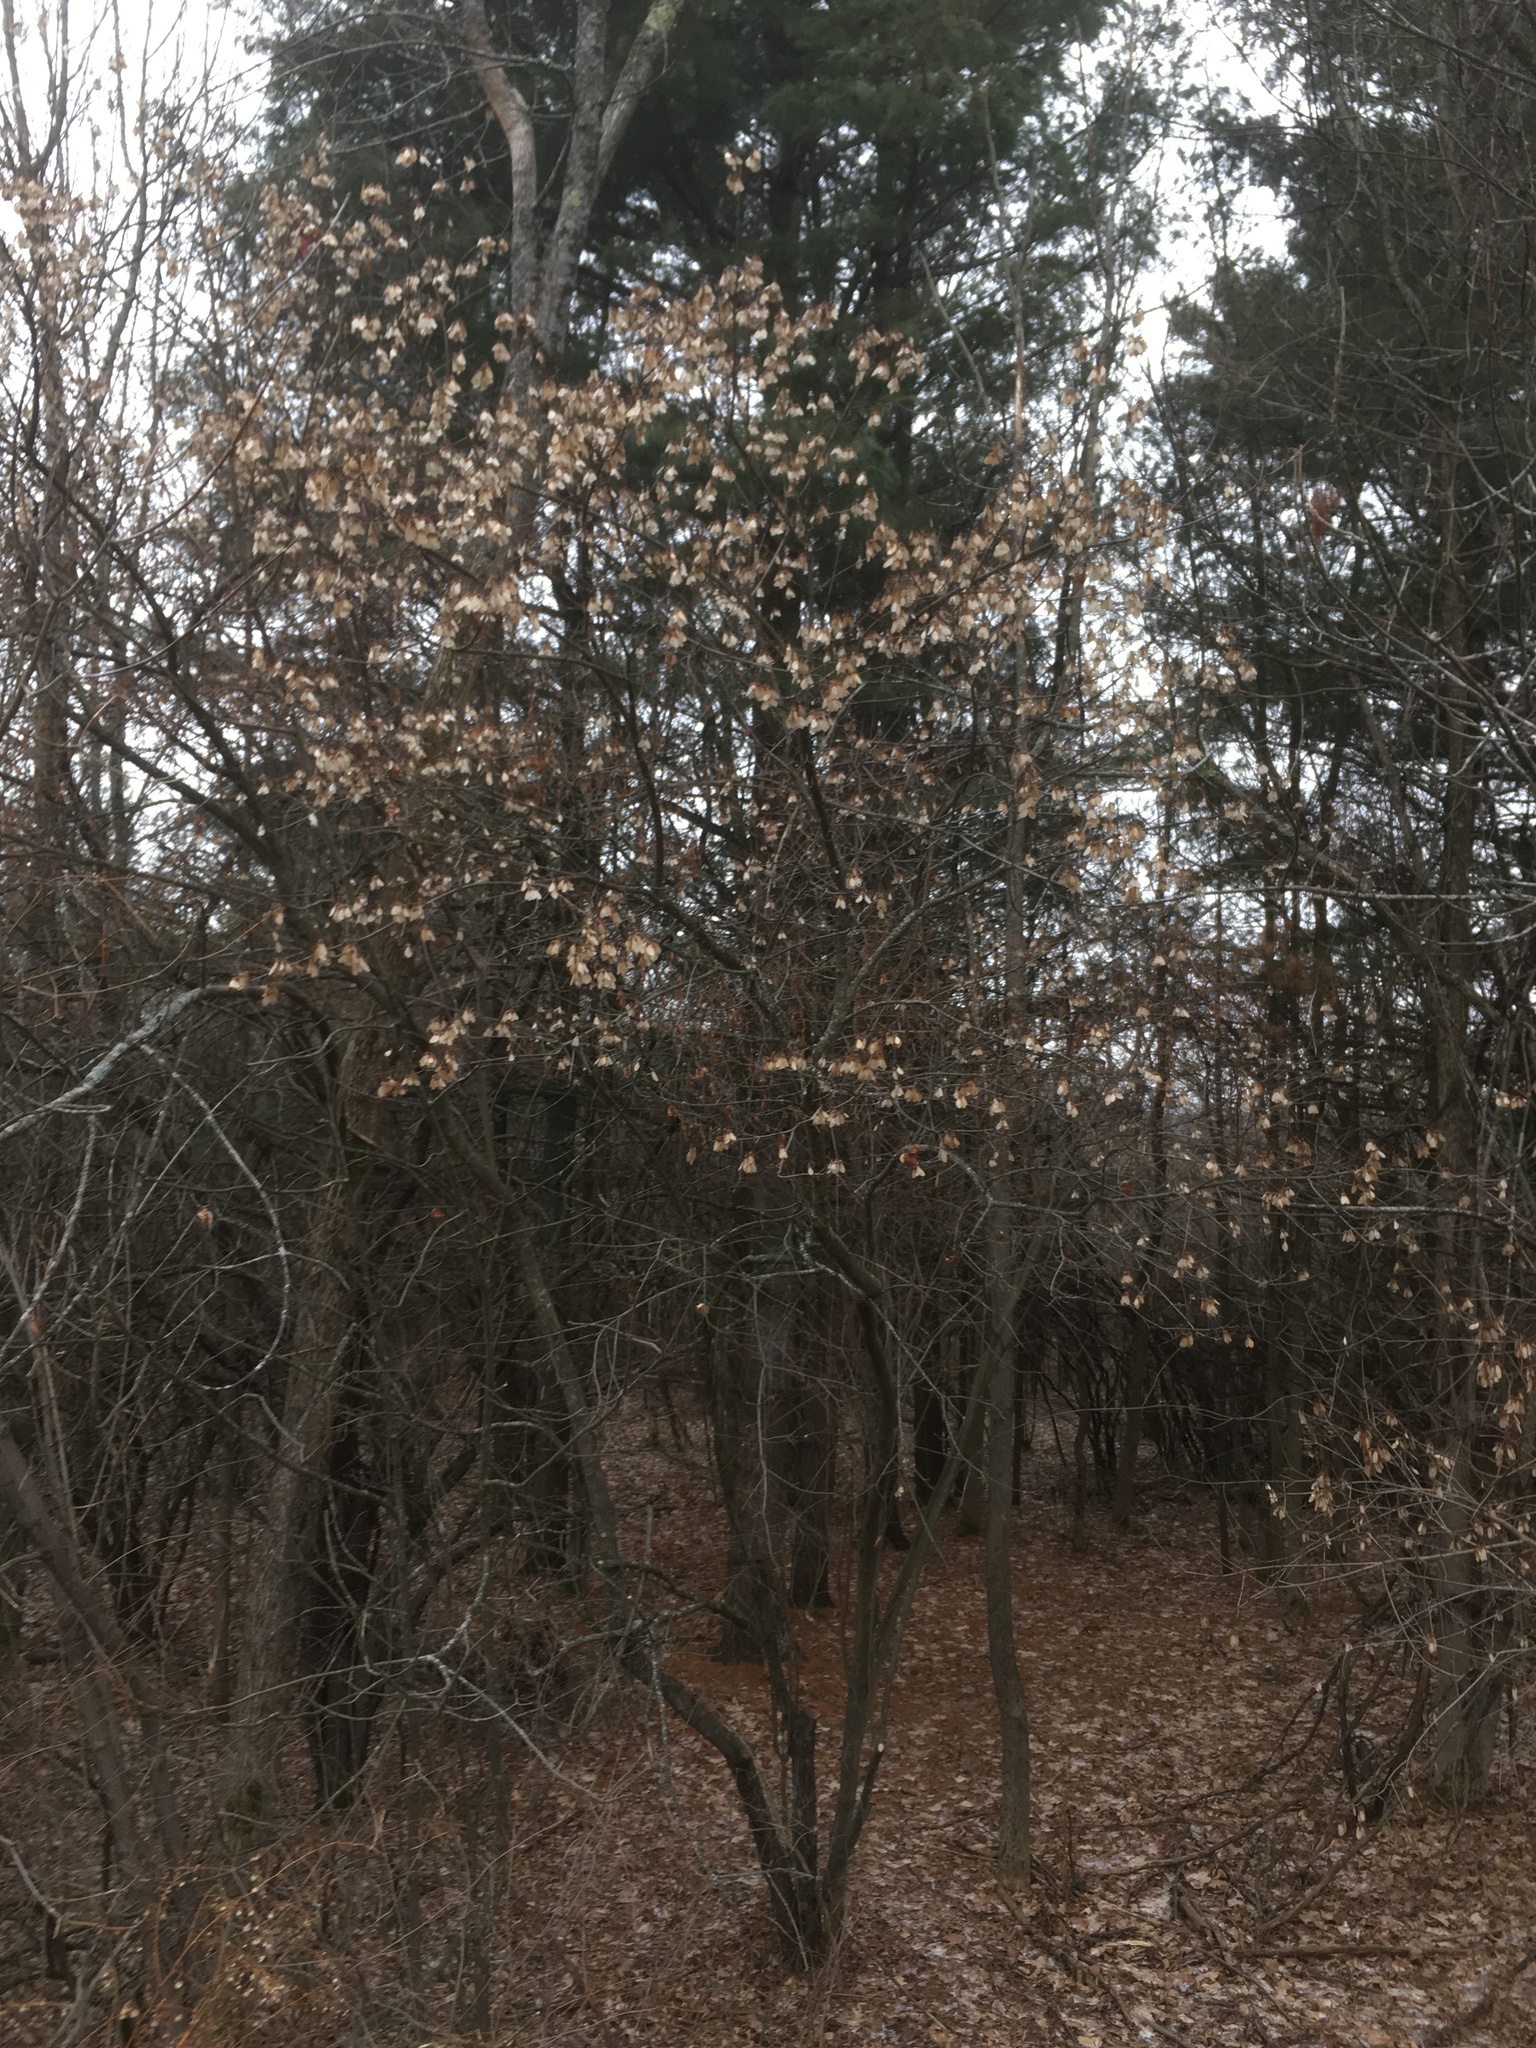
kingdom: Plantae
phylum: Tracheophyta
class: Magnoliopsida
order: Sapindales
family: Sapindaceae
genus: Acer
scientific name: Acer tataricum
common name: Tartar maple
